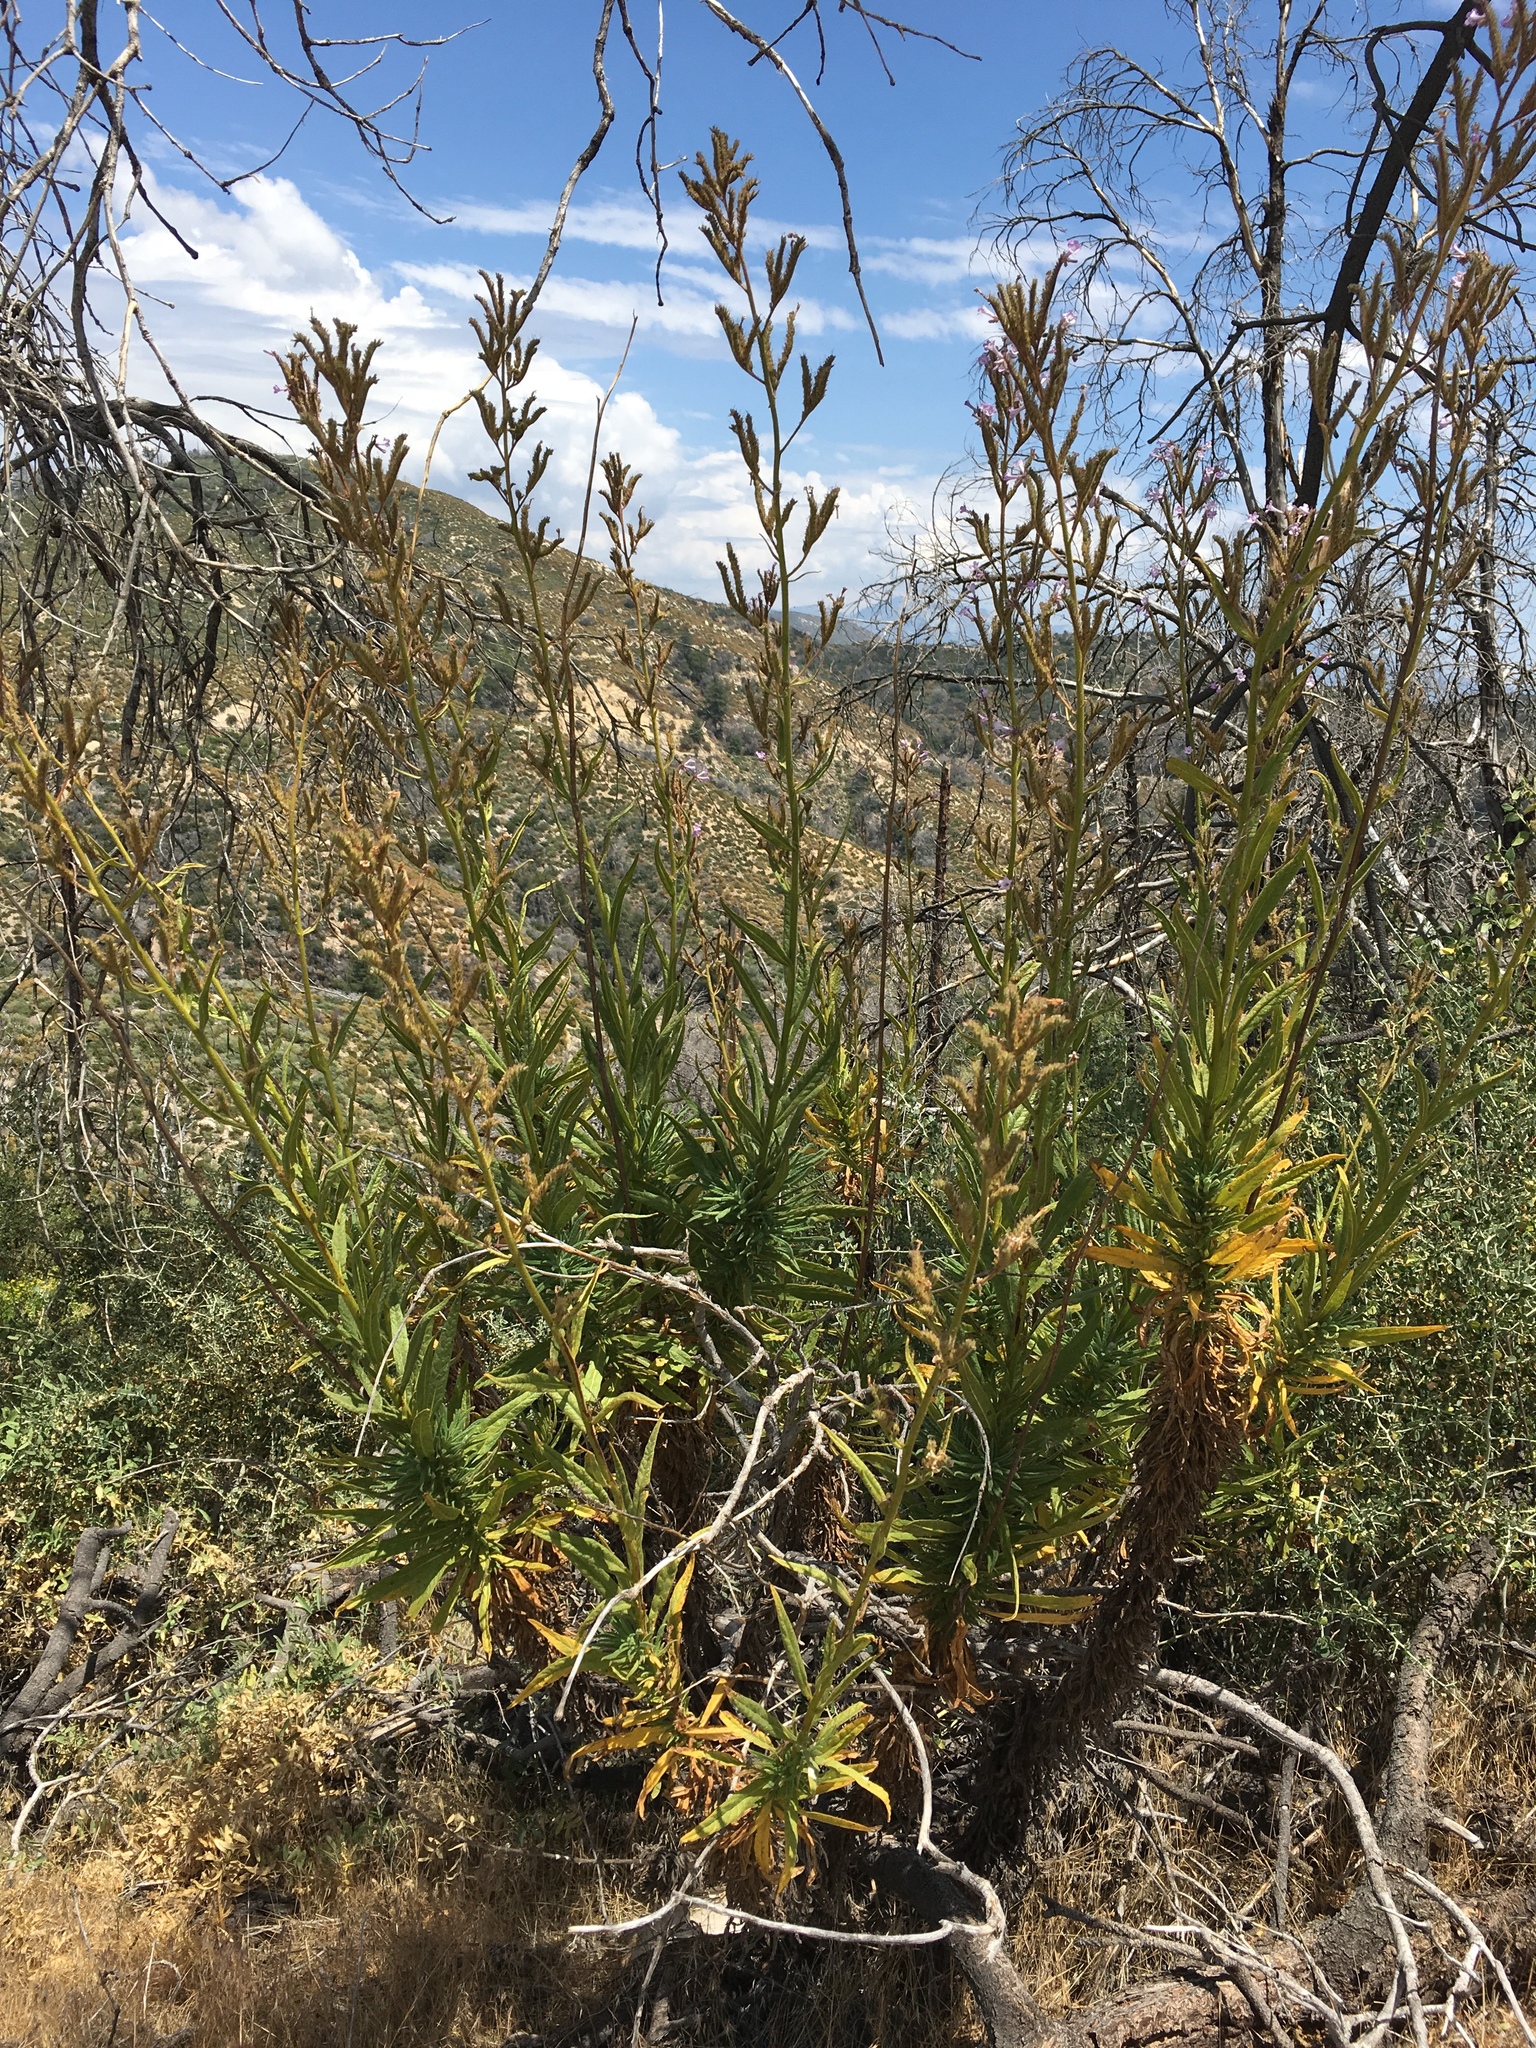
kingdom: Plantae
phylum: Tracheophyta
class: Magnoliopsida
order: Boraginales
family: Namaceae
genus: Turricula
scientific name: Turricula parryi
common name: Poodle-dog-bush
